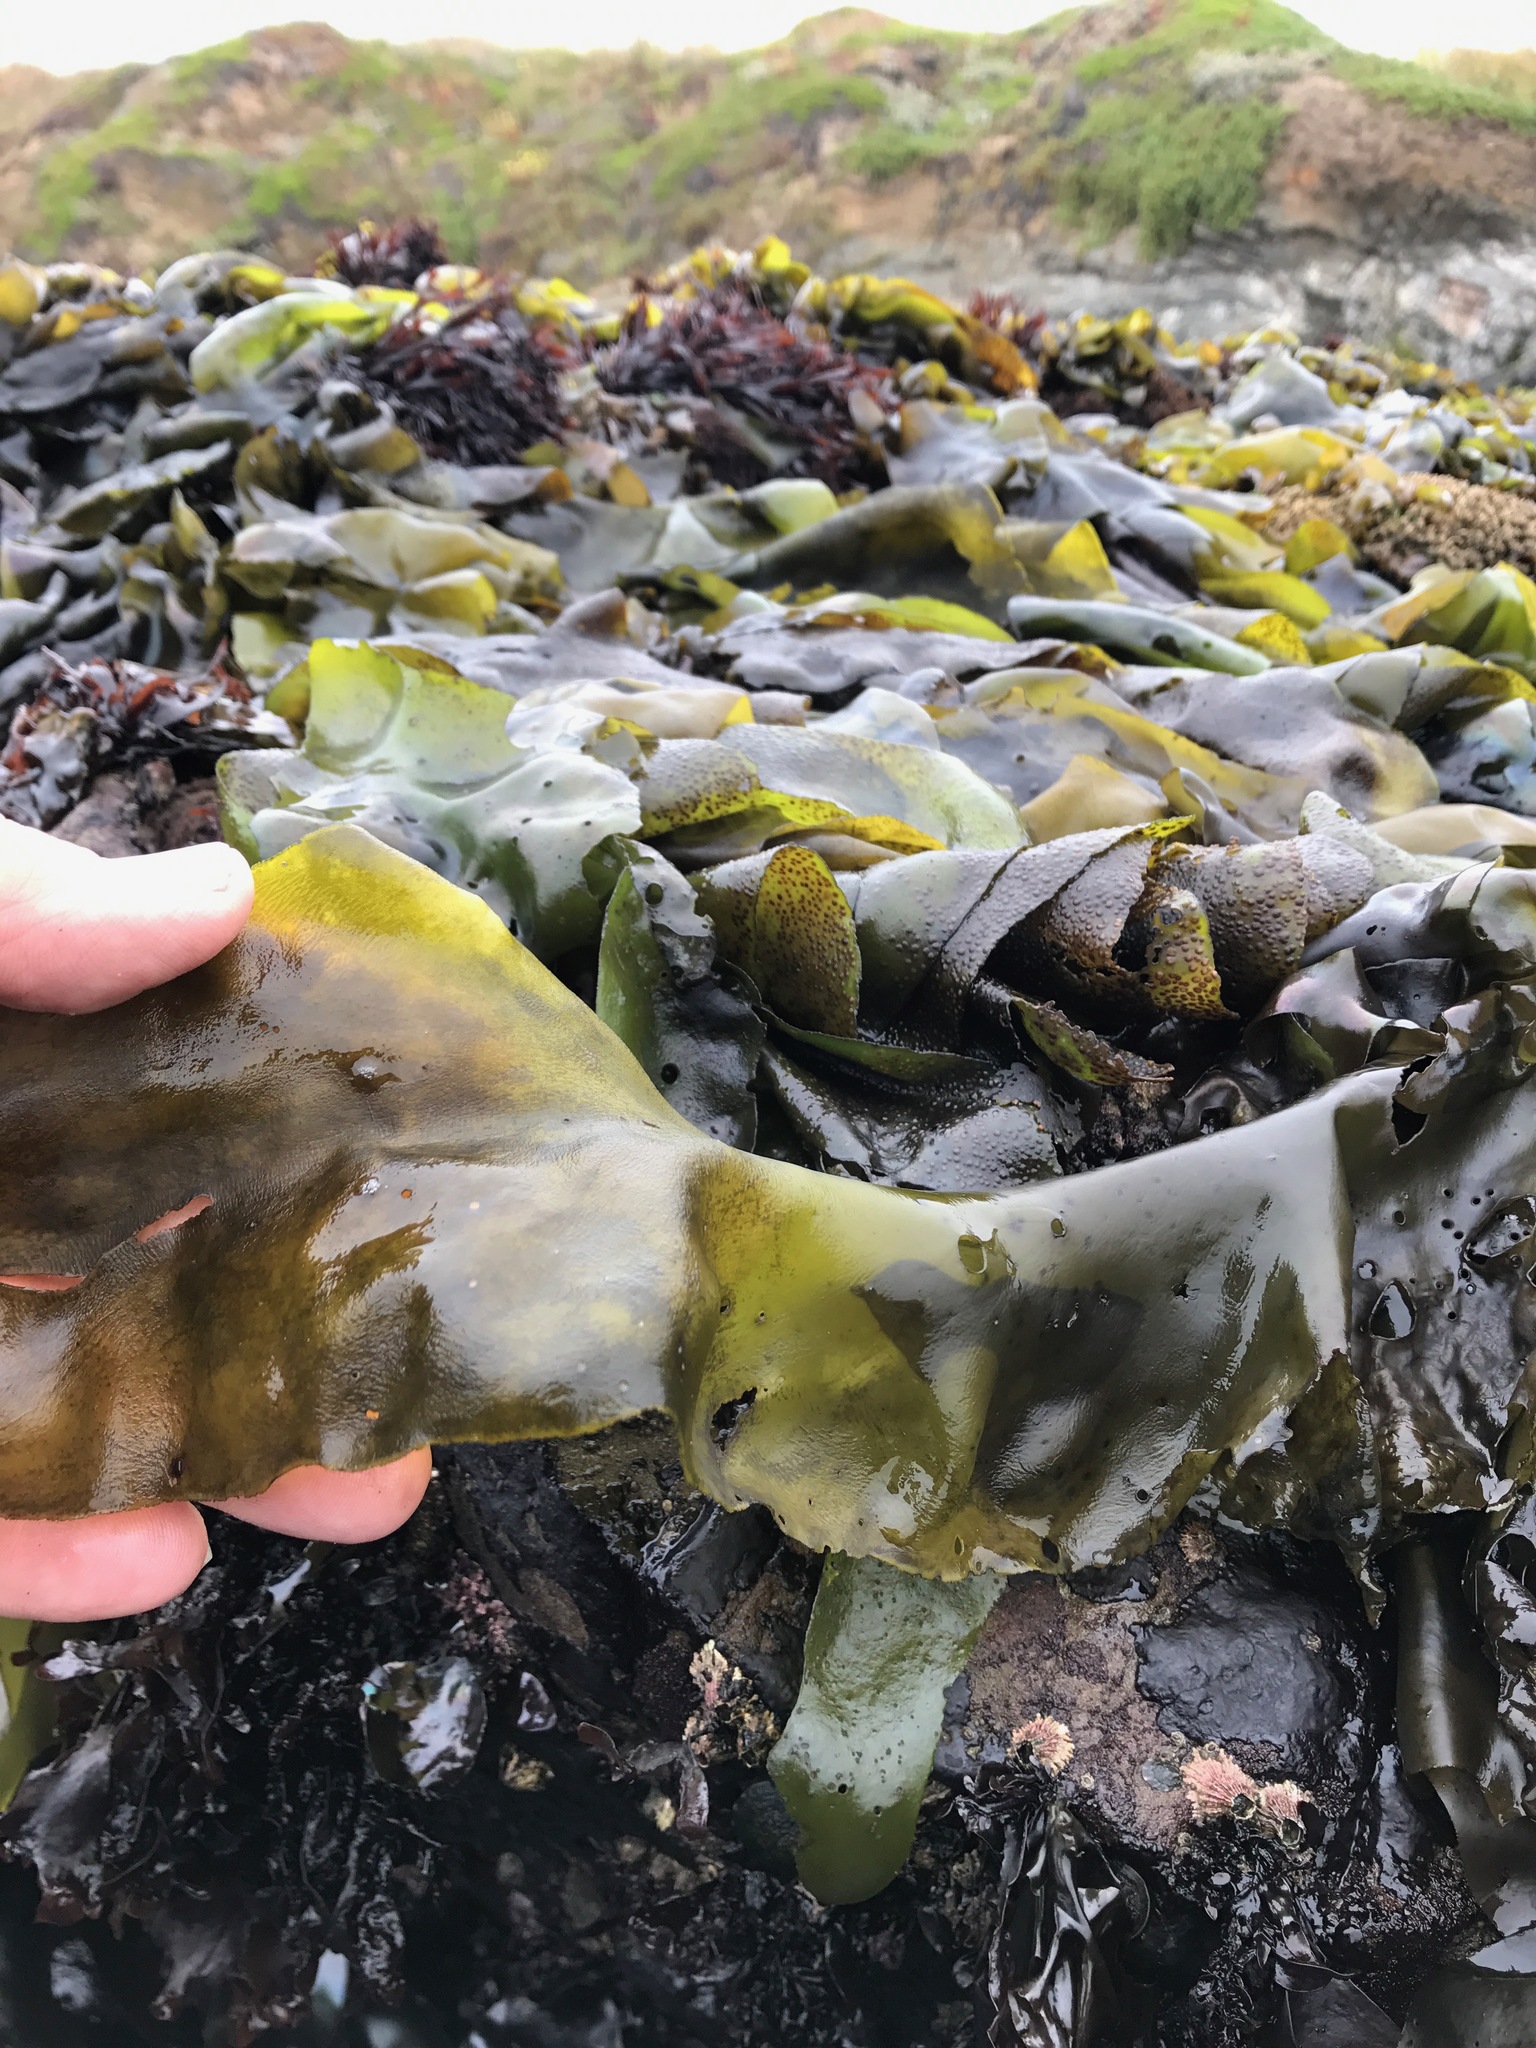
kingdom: Plantae
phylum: Rhodophyta
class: Florideophyceae
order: Gigartinales
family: Gigartinaceae
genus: Mazzaella
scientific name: Mazzaella flaccida
